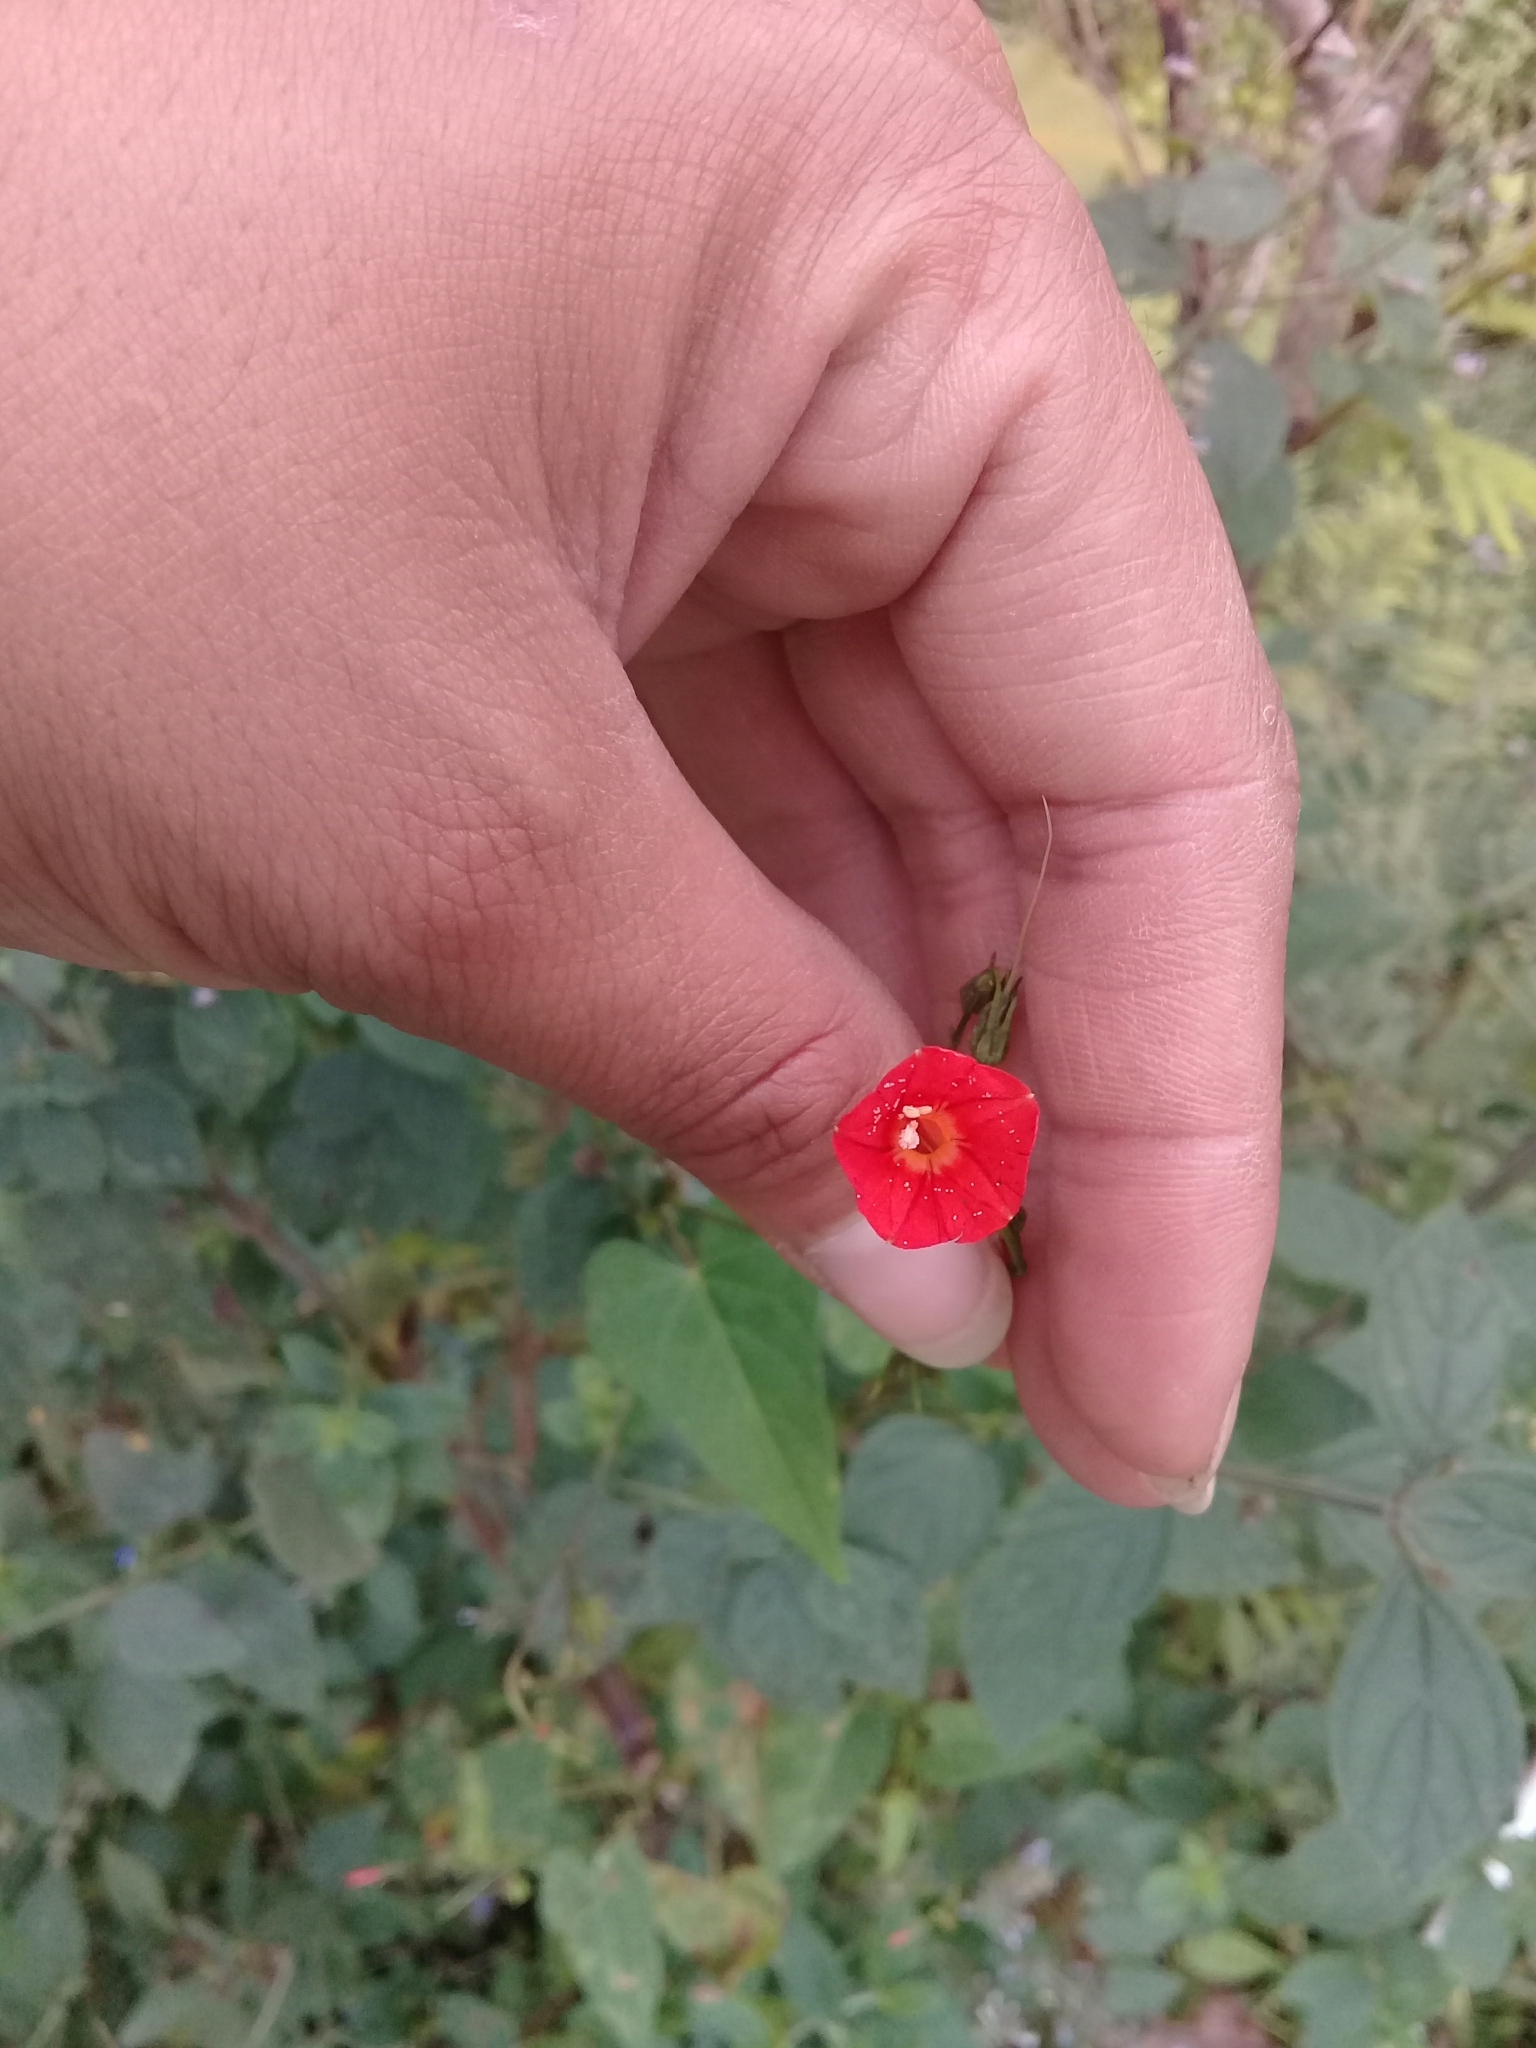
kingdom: Plantae
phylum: Tracheophyta
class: Magnoliopsida
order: Solanales
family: Convolvulaceae
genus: Ipomoea
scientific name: Ipomoea hederifolia
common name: Ivy-leaf morning-glory
